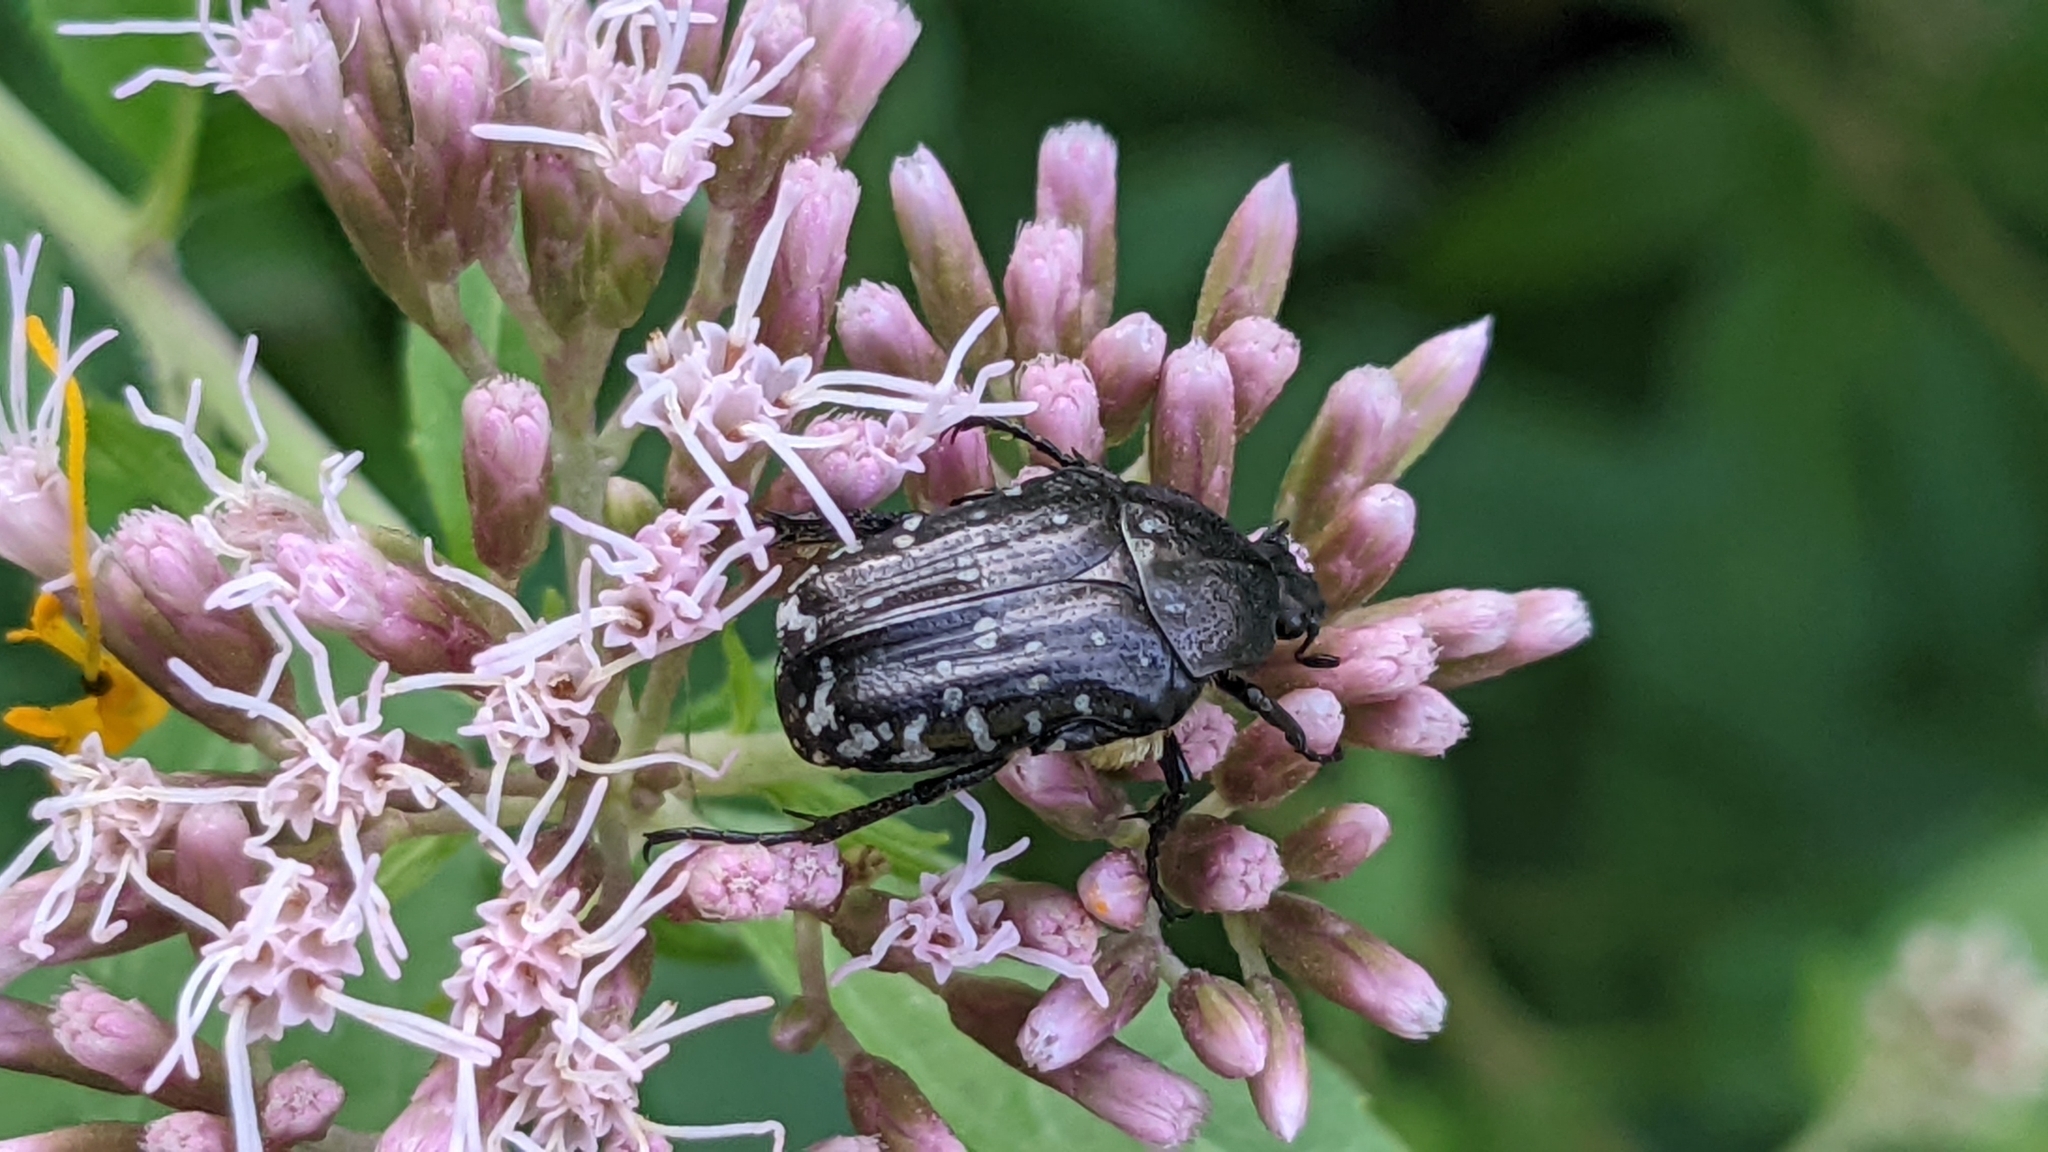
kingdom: Animalia
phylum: Arthropoda
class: Insecta
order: Coleoptera
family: Scarabaeidae
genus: Oxythyrea
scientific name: Oxythyrea funesta
